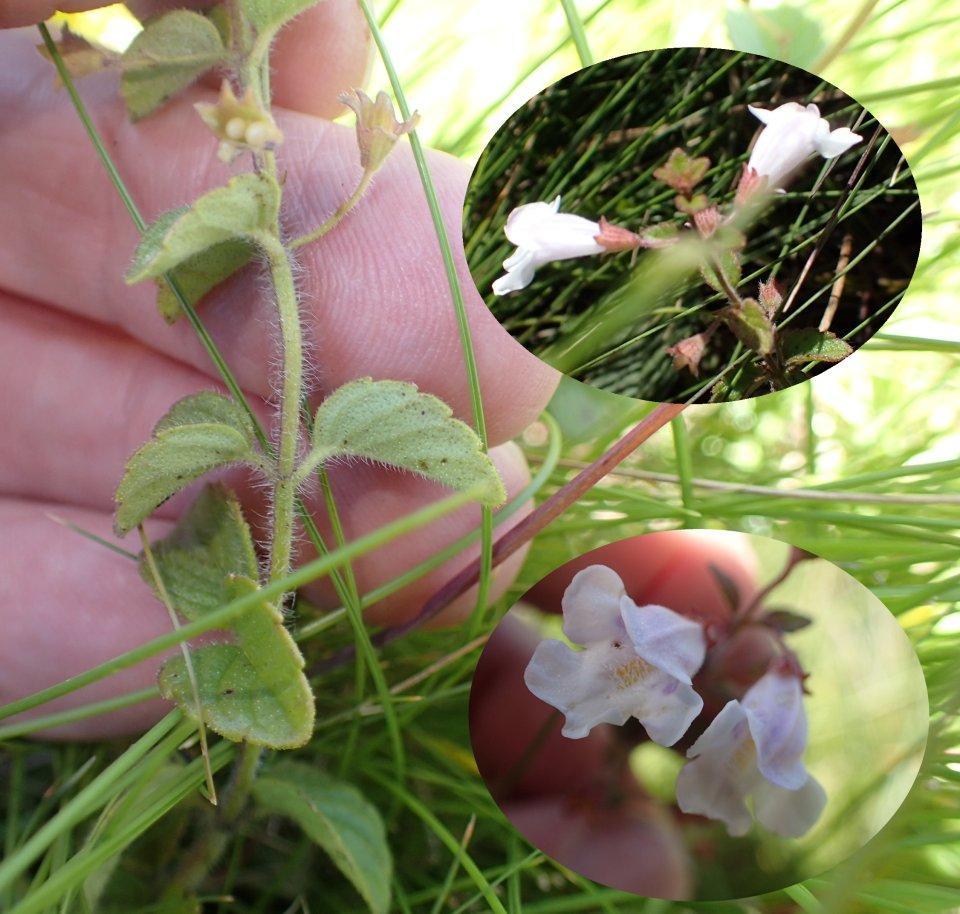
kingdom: Plantae
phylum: Tracheophyta
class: Magnoliopsida
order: Lamiales
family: Lamiaceae
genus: Killickia
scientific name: Killickia pilosa
